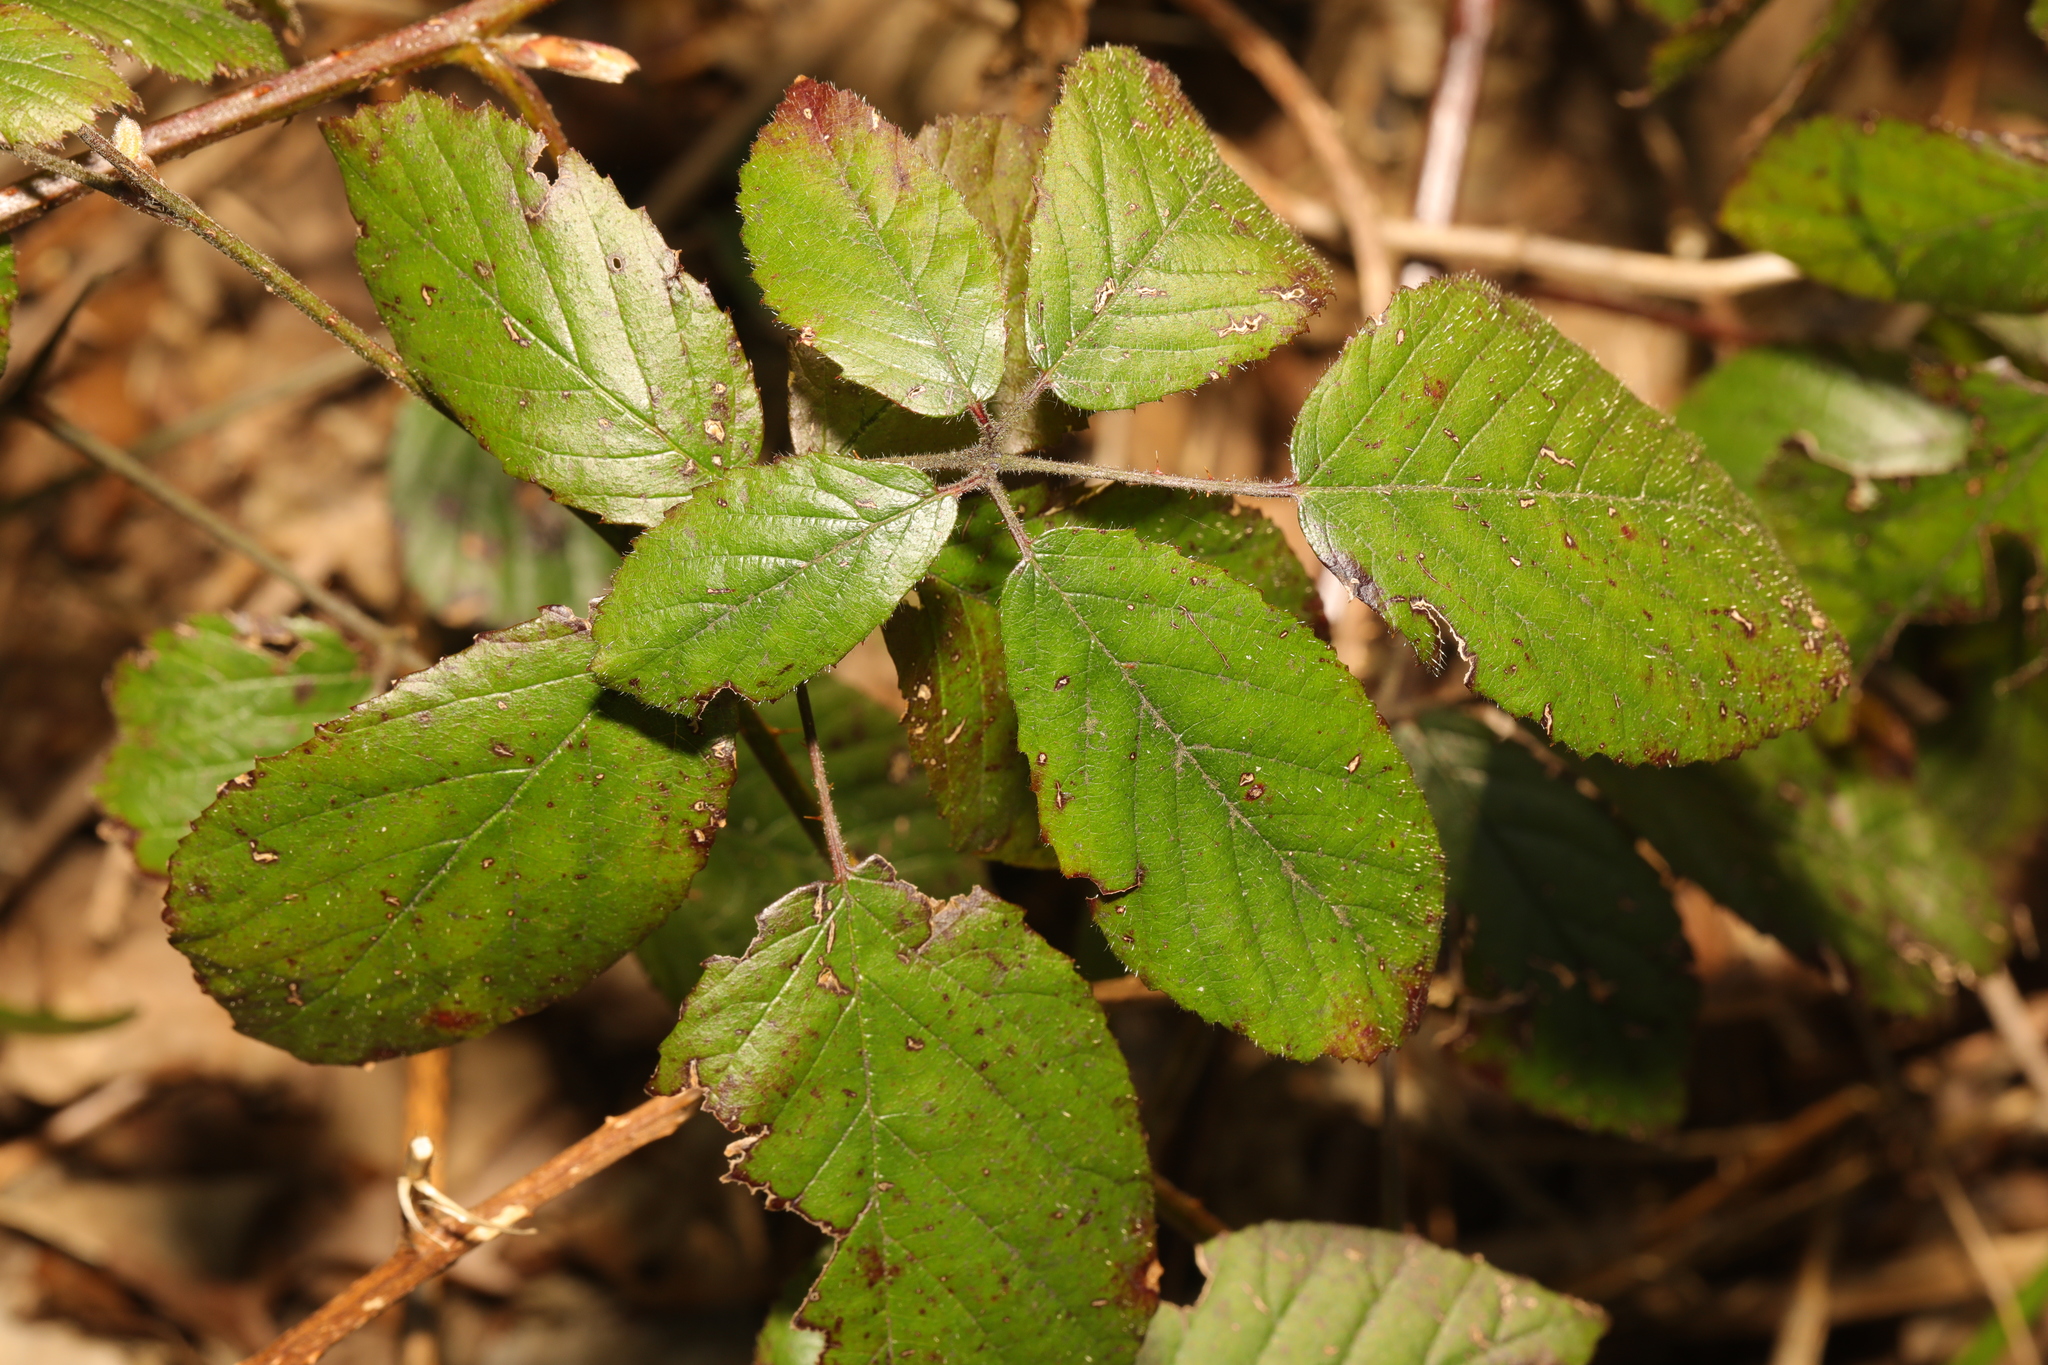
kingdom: Plantae
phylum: Tracheophyta
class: Magnoliopsida
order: Rosales
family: Rosaceae
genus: Rubus
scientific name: Rubus rufescens
